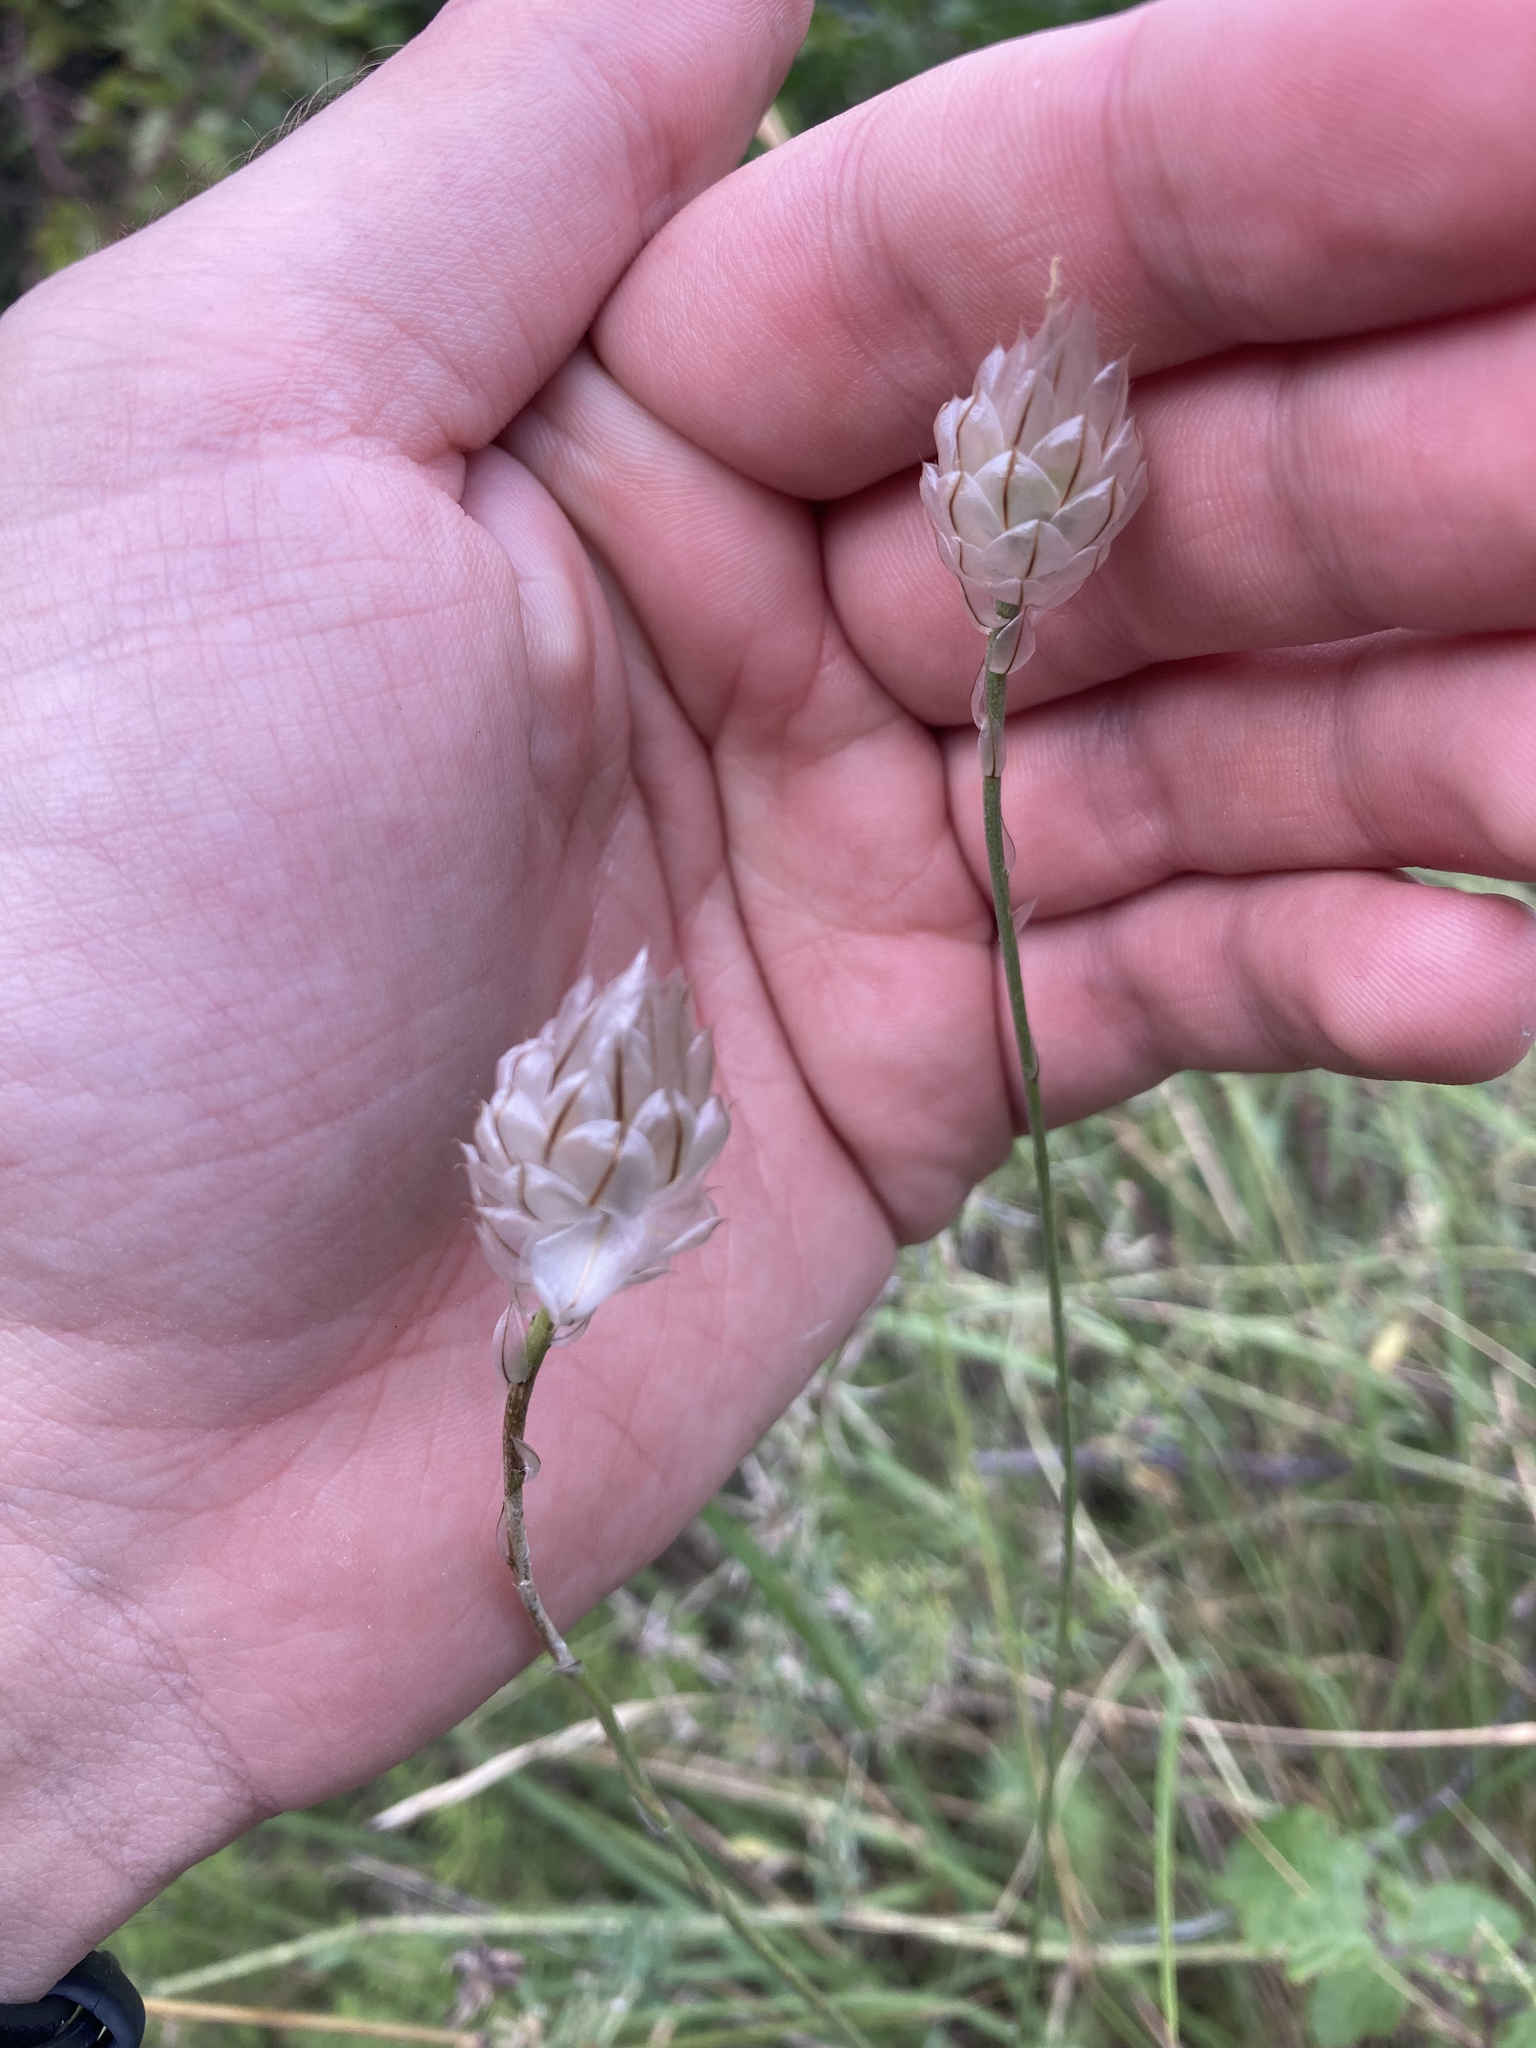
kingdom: Plantae
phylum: Tracheophyta
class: Magnoliopsida
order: Asterales
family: Asteraceae
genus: Catananche
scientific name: Catananche caerulea
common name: Blue cupidone
